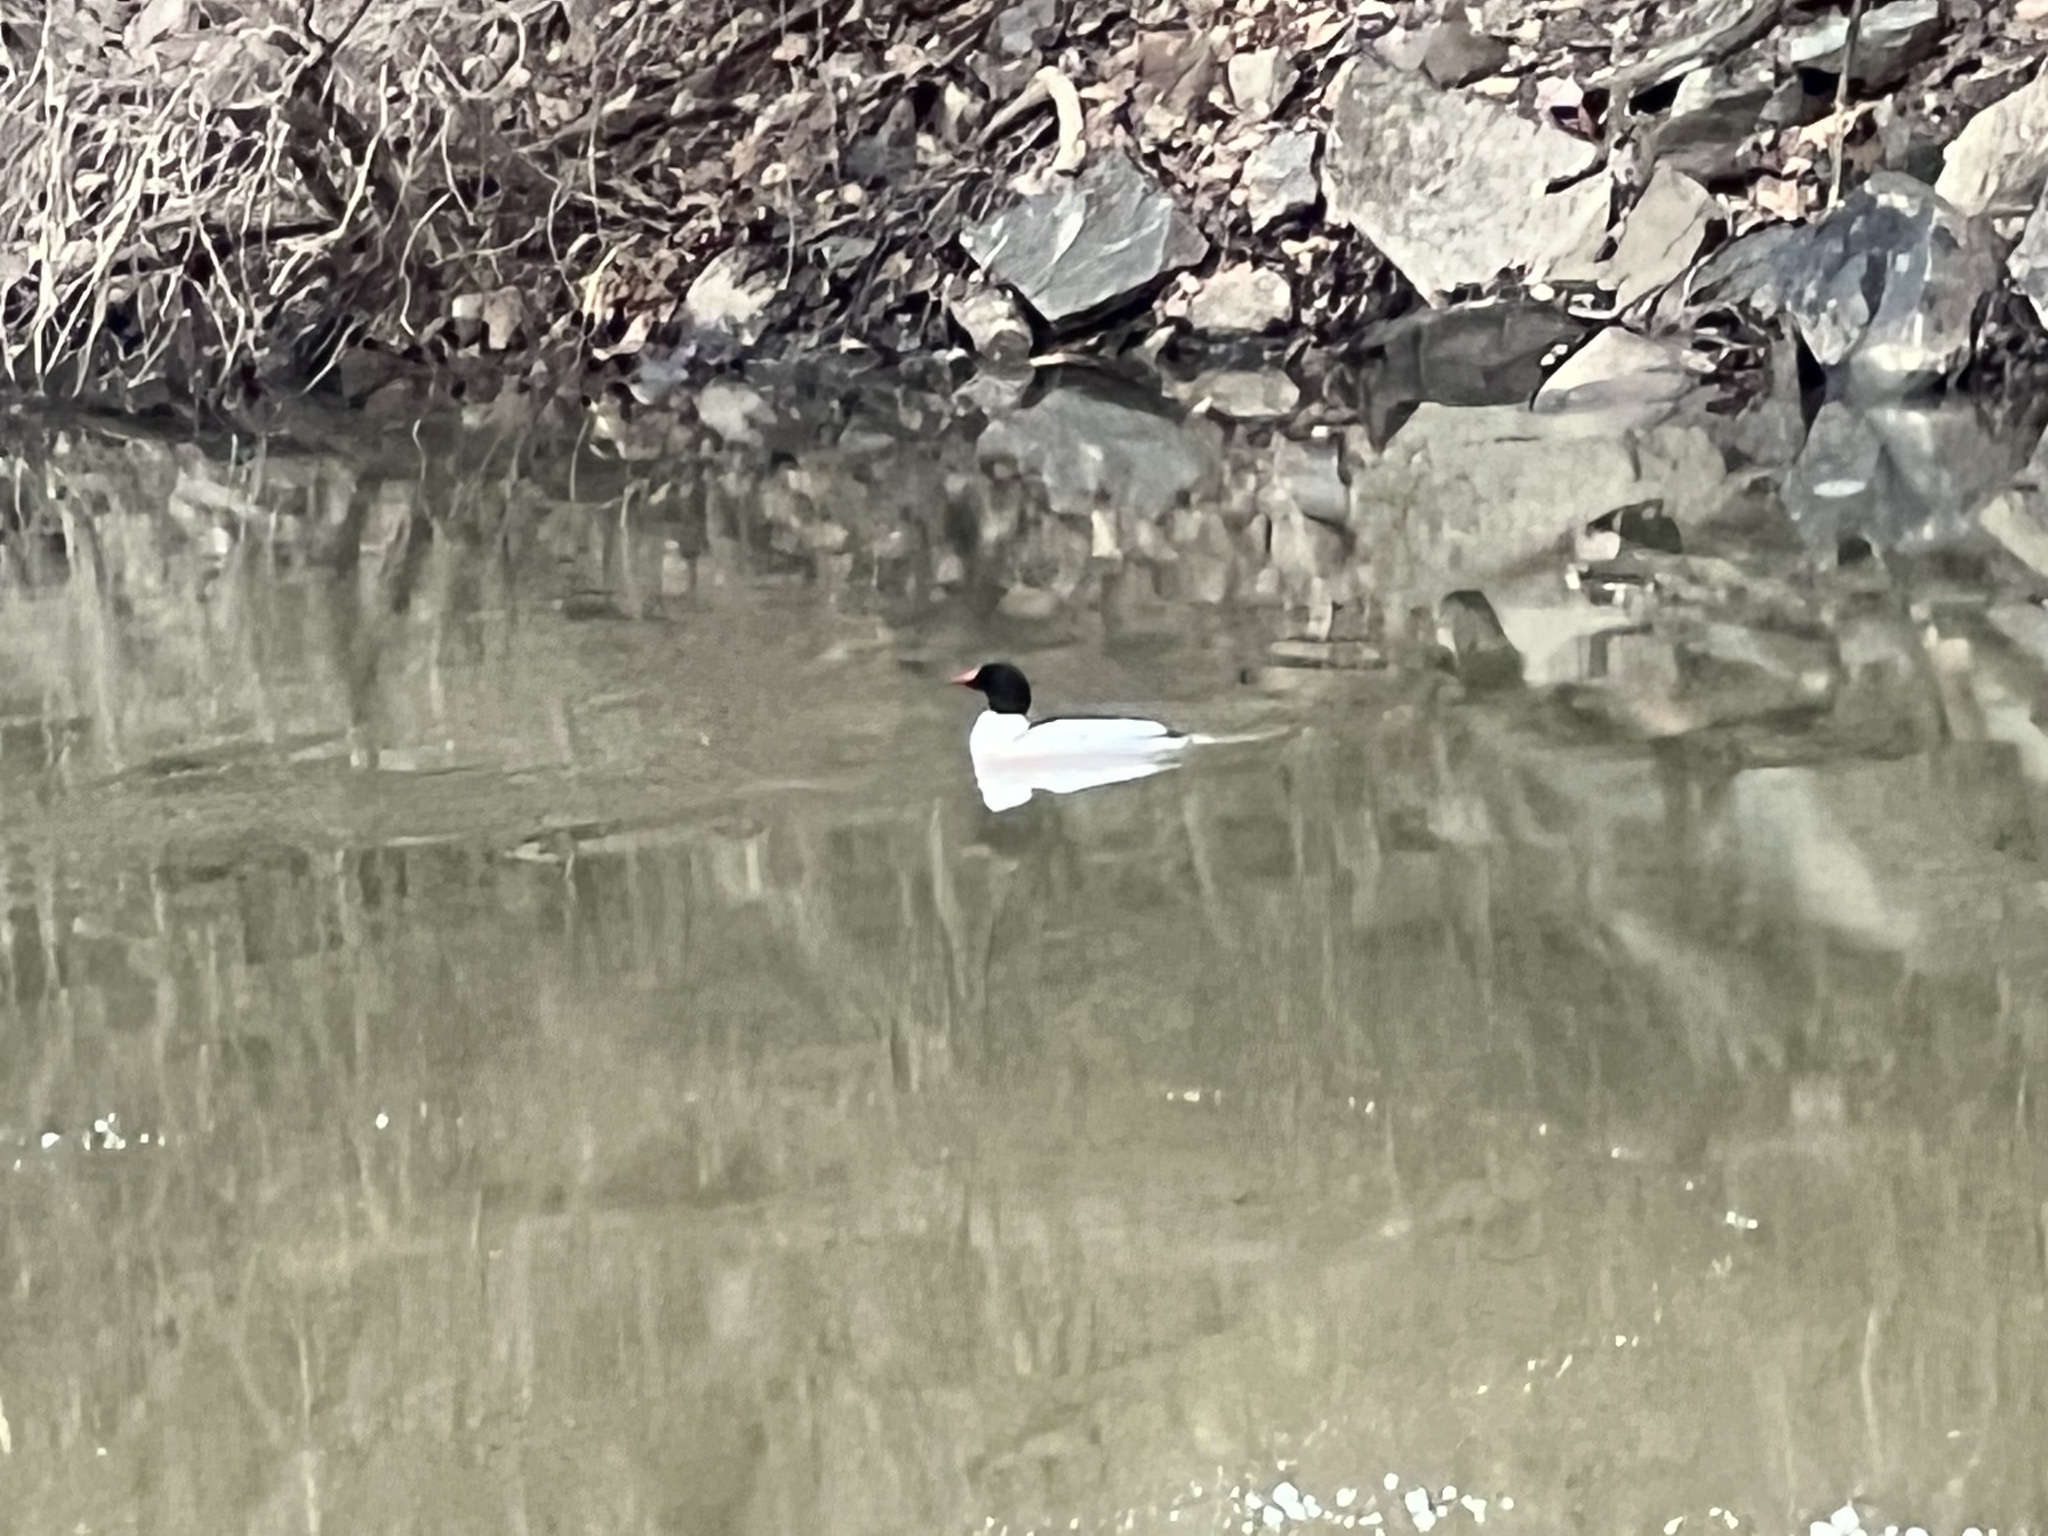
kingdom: Animalia
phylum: Chordata
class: Aves
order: Anseriformes
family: Anatidae
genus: Mergus
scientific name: Mergus merganser
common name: Common merganser
